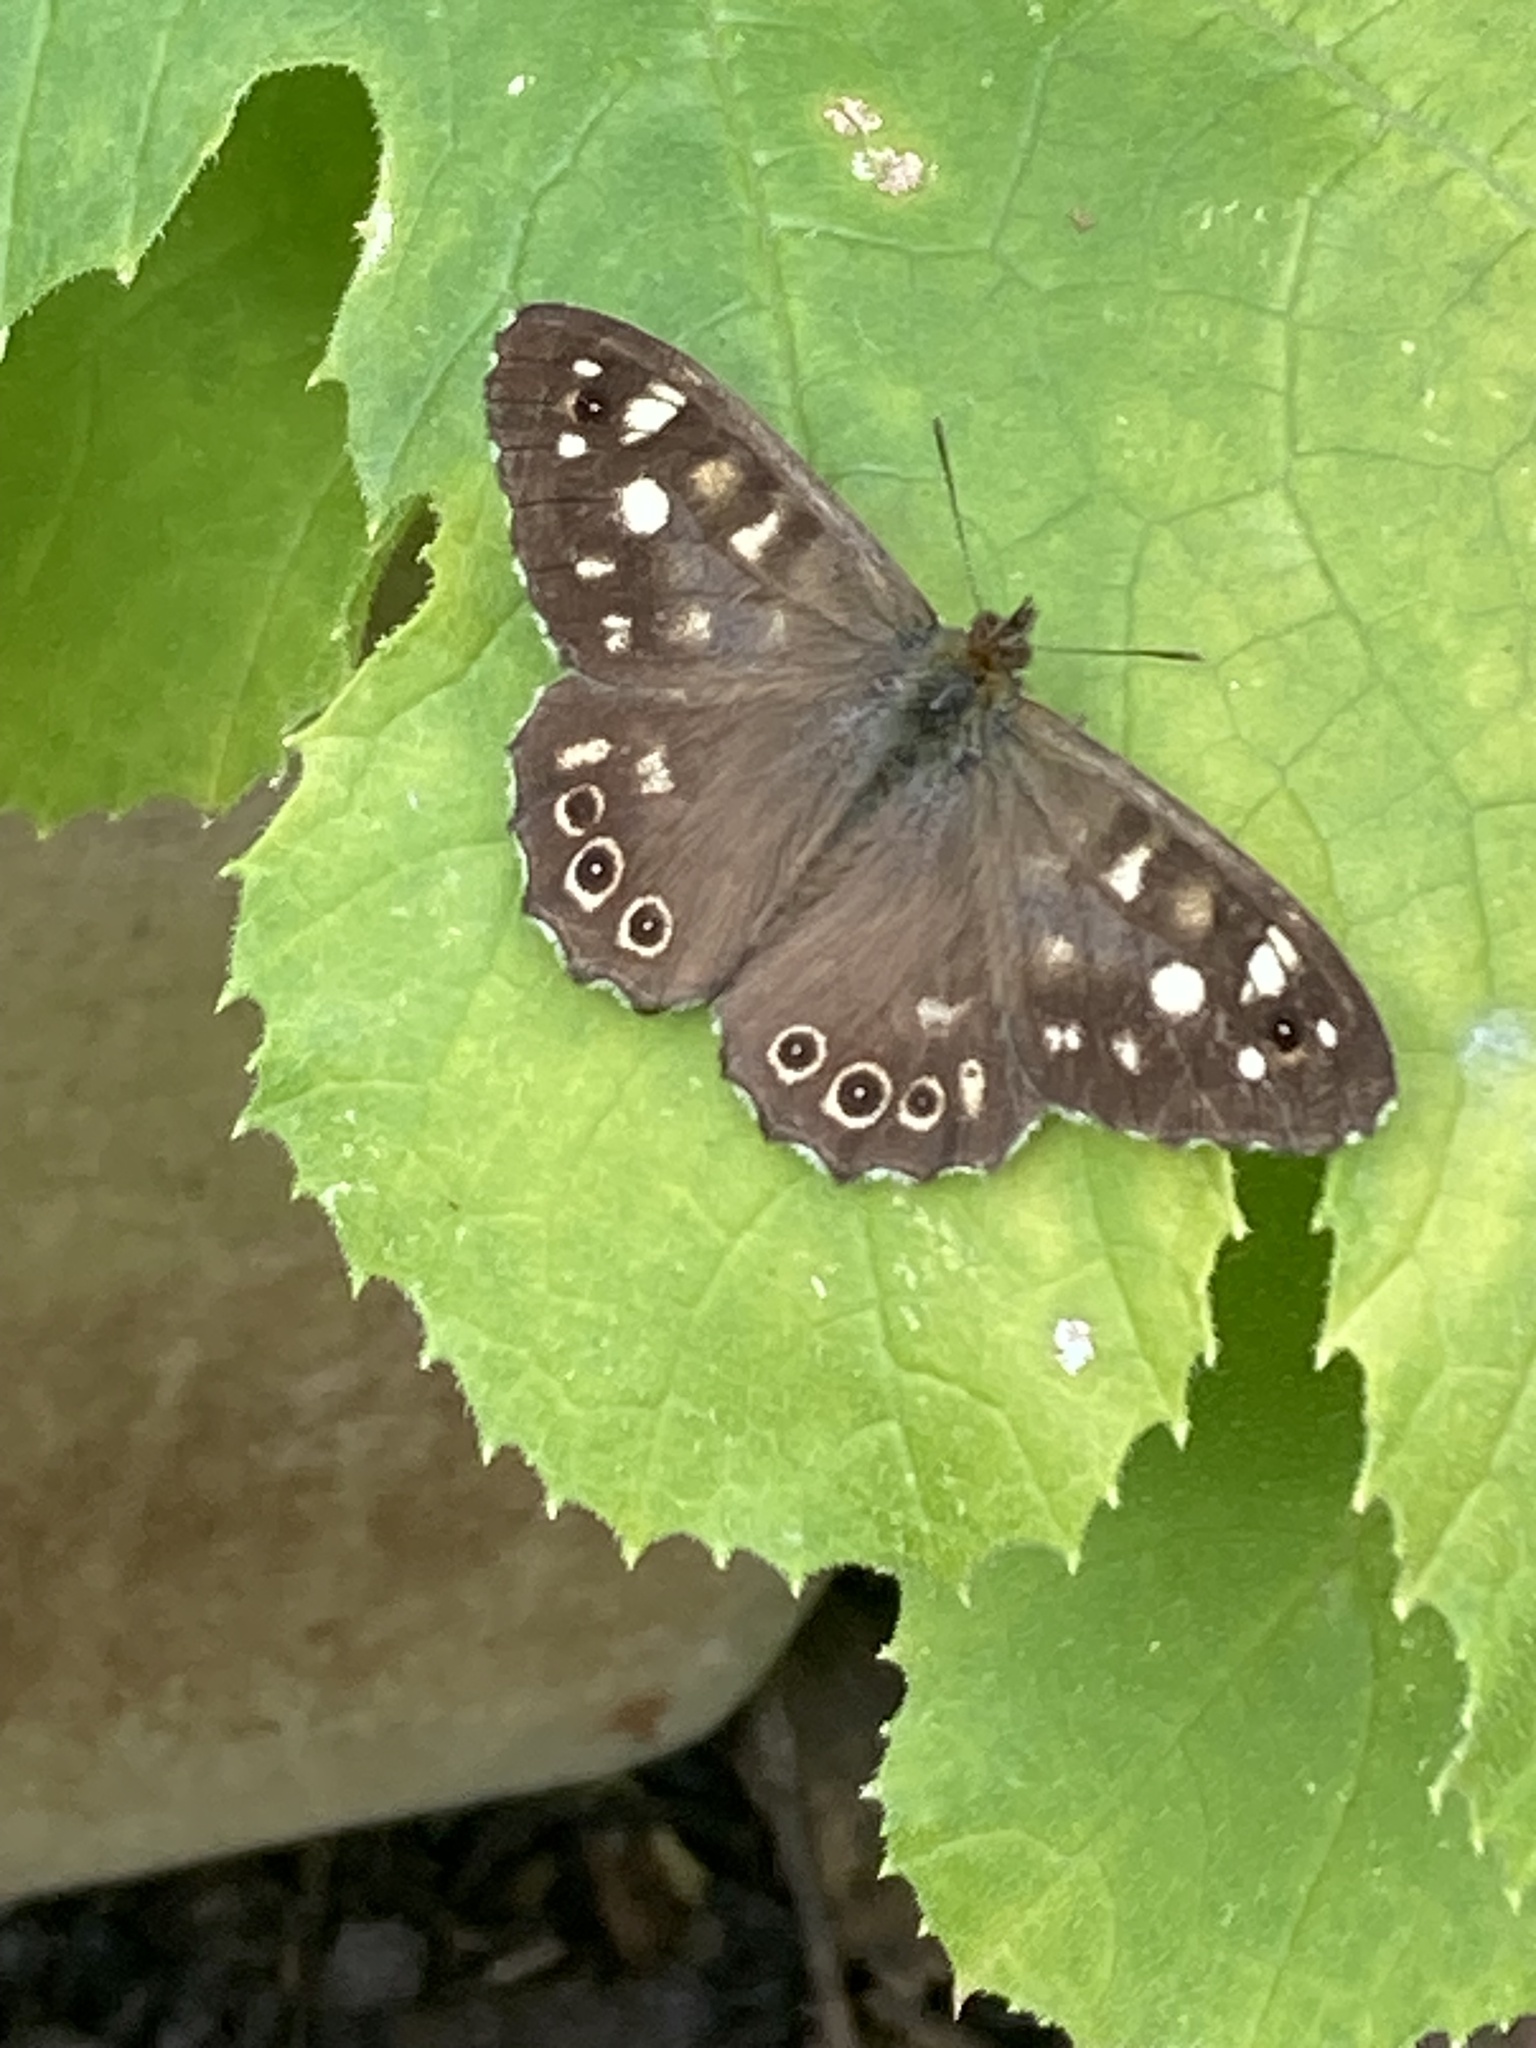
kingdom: Animalia
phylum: Arthropoda
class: Insecta
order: Lepidoptera
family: Nymphalidae
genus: Pararge
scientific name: Pararge aegeria
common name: Speckled wood
